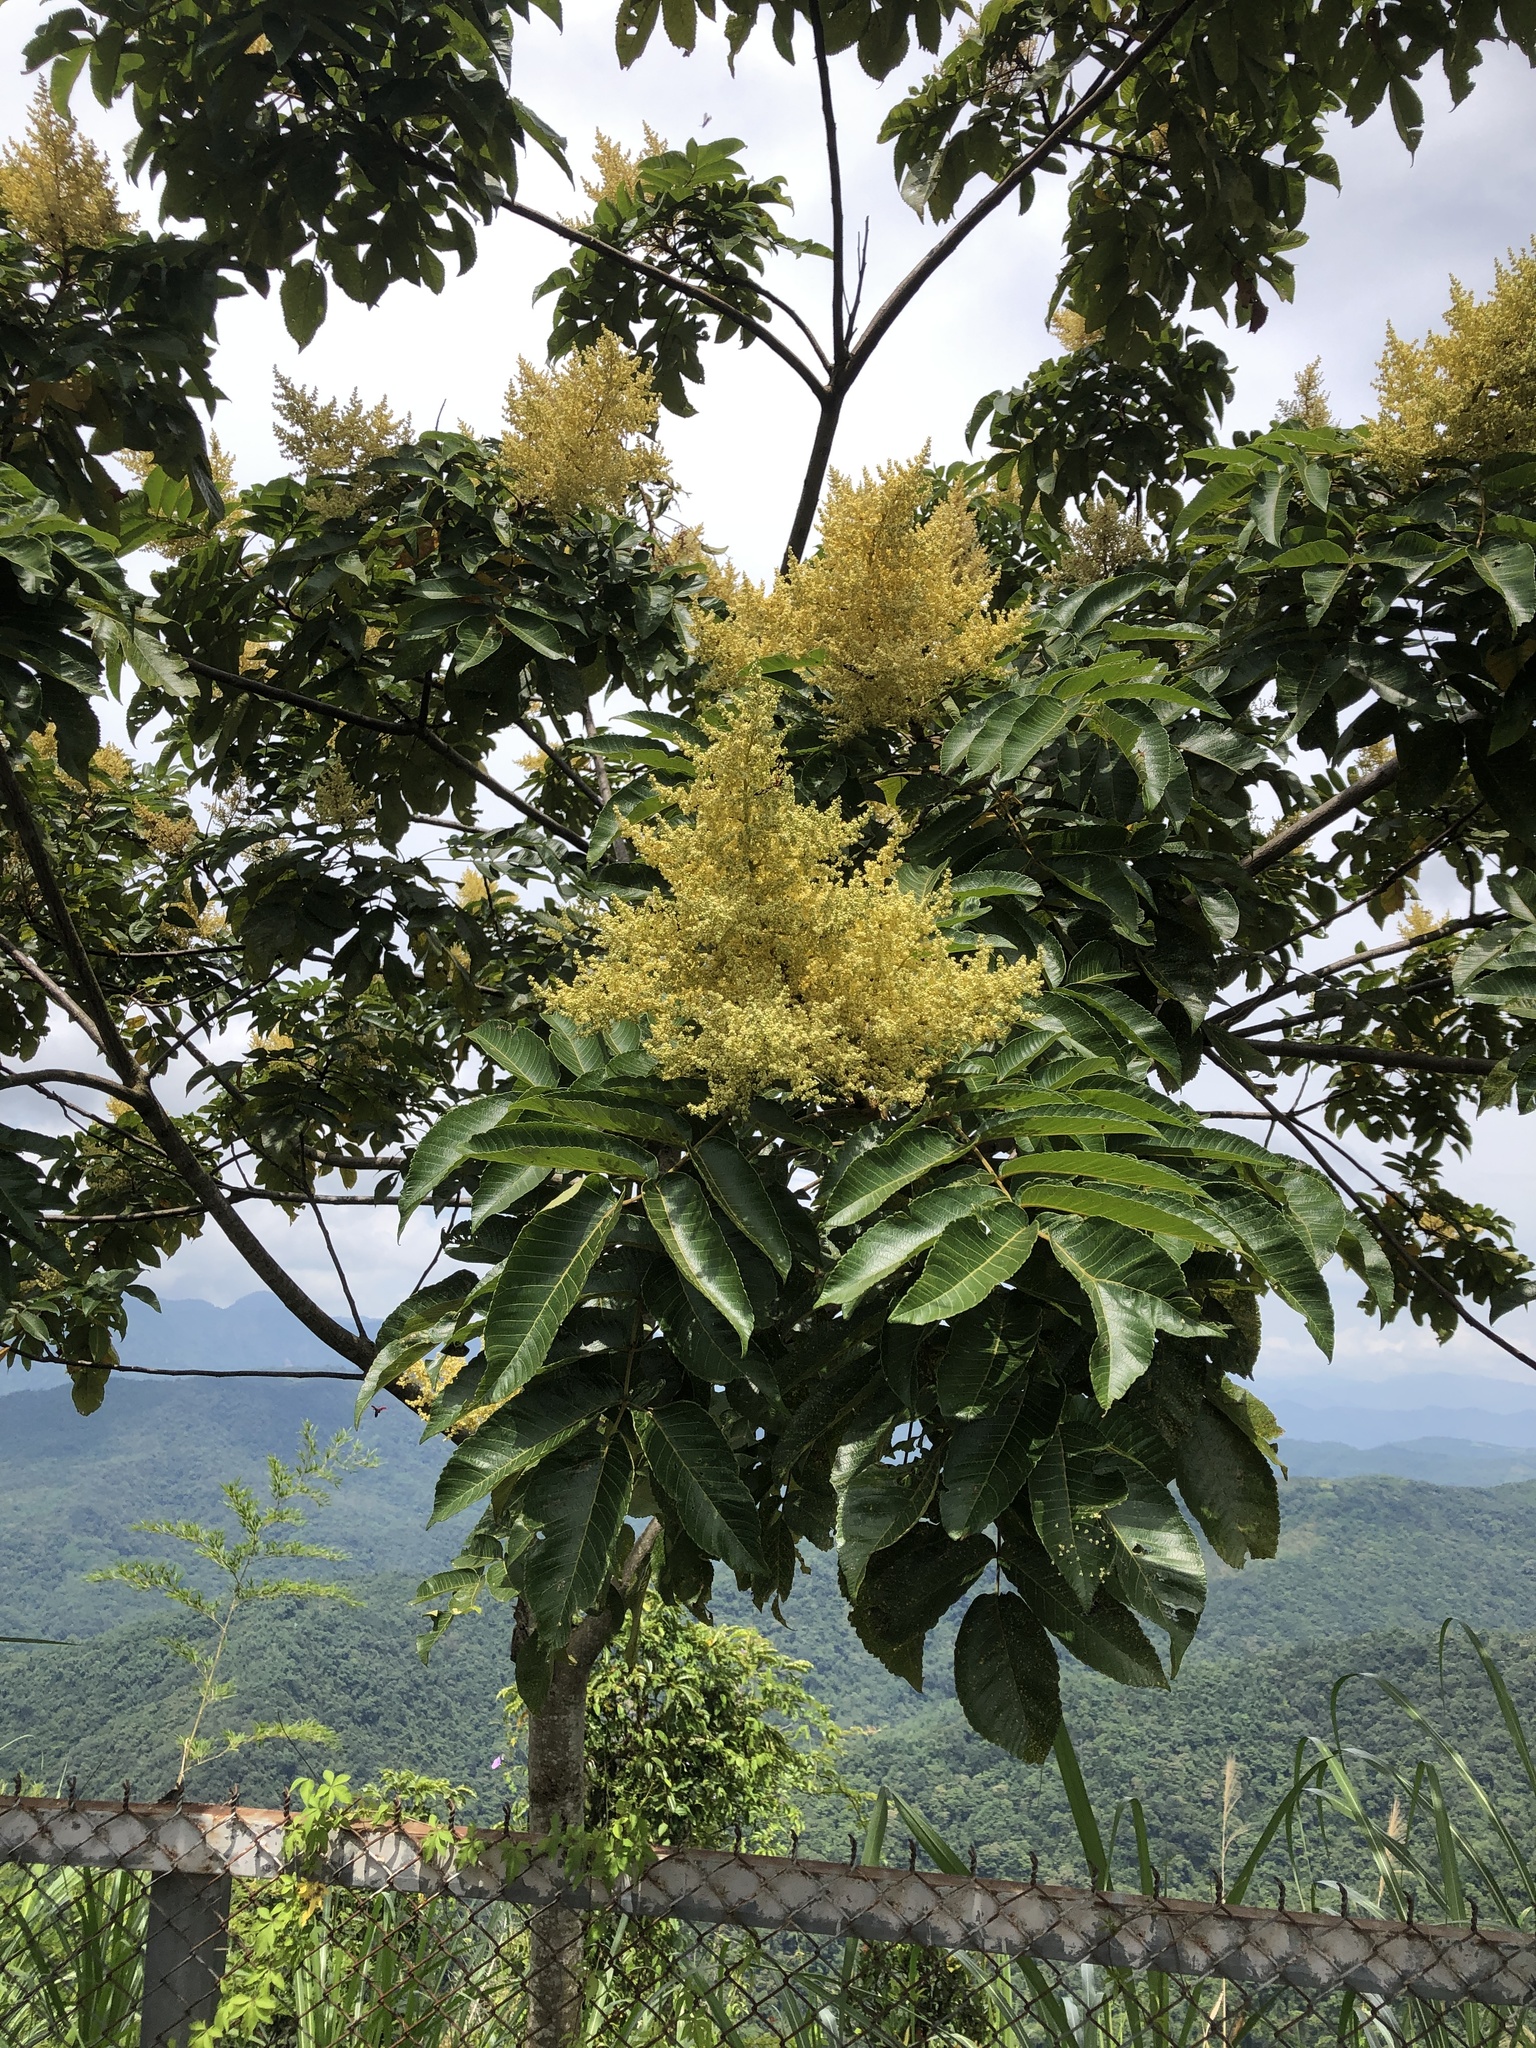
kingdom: Plantae
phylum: Tracheophyta
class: Magnoliopsida
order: Sapindales
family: Anacardiaceae
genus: Rhus
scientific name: Rhus chinensis
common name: Chinese gall
